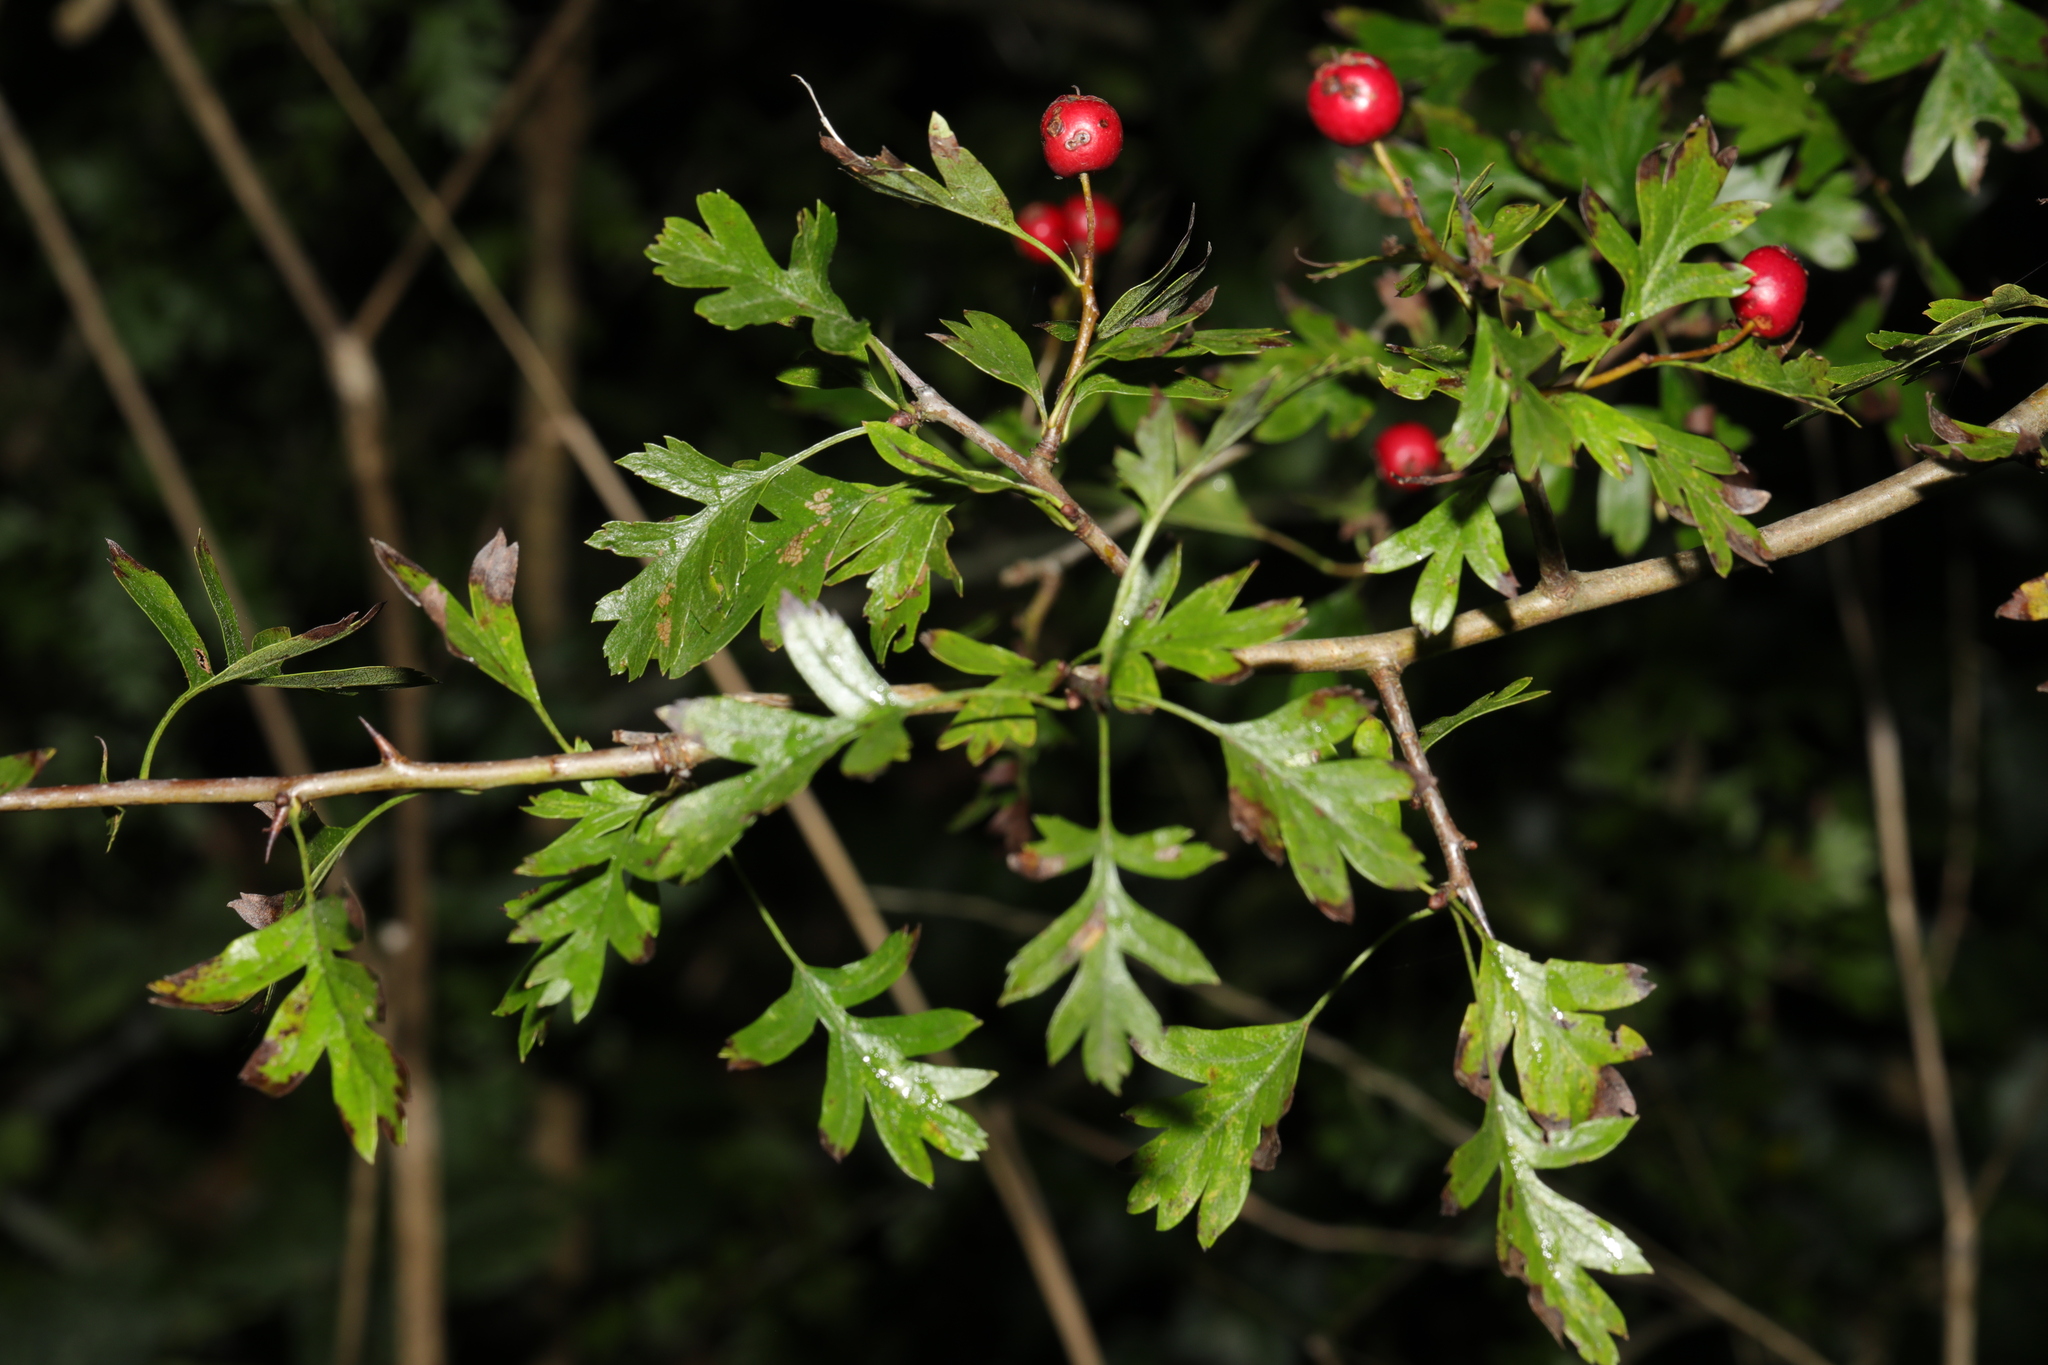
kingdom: Plantae
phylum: Tracheophyta
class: Magnoliopsida
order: Rosales
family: Rosaceae
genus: Crataegus
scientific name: Crataegus monogyna
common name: Hawthorn
